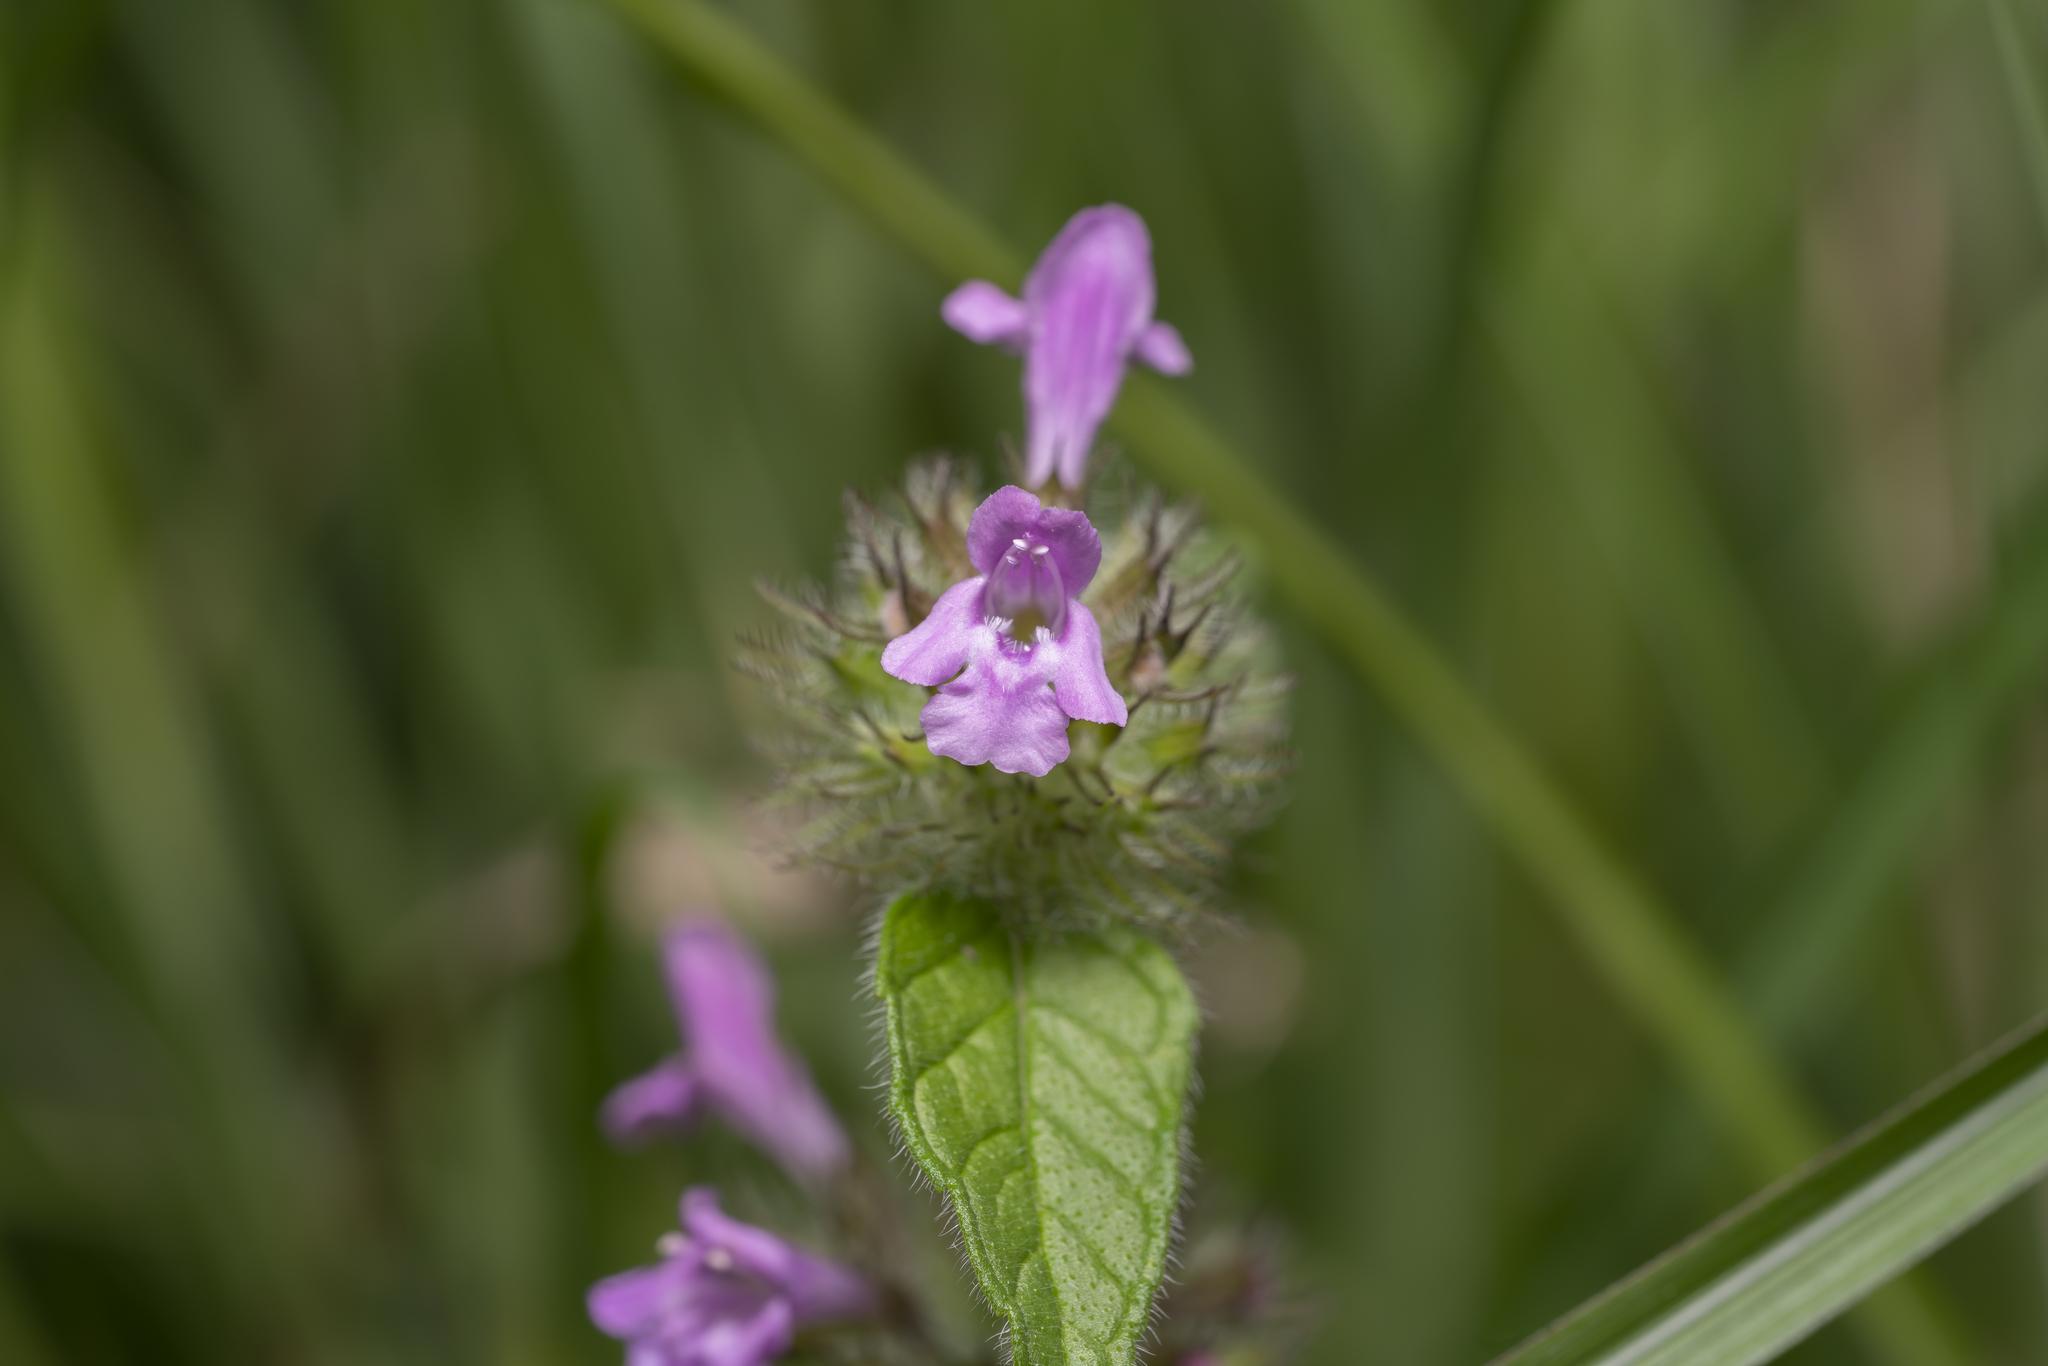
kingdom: Plantae
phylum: Tracheophyta
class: Magnoliopsida
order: Lamiales
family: Lamiaceae
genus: Clinopodium
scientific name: Clinopodium vulgare
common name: Wild basil
